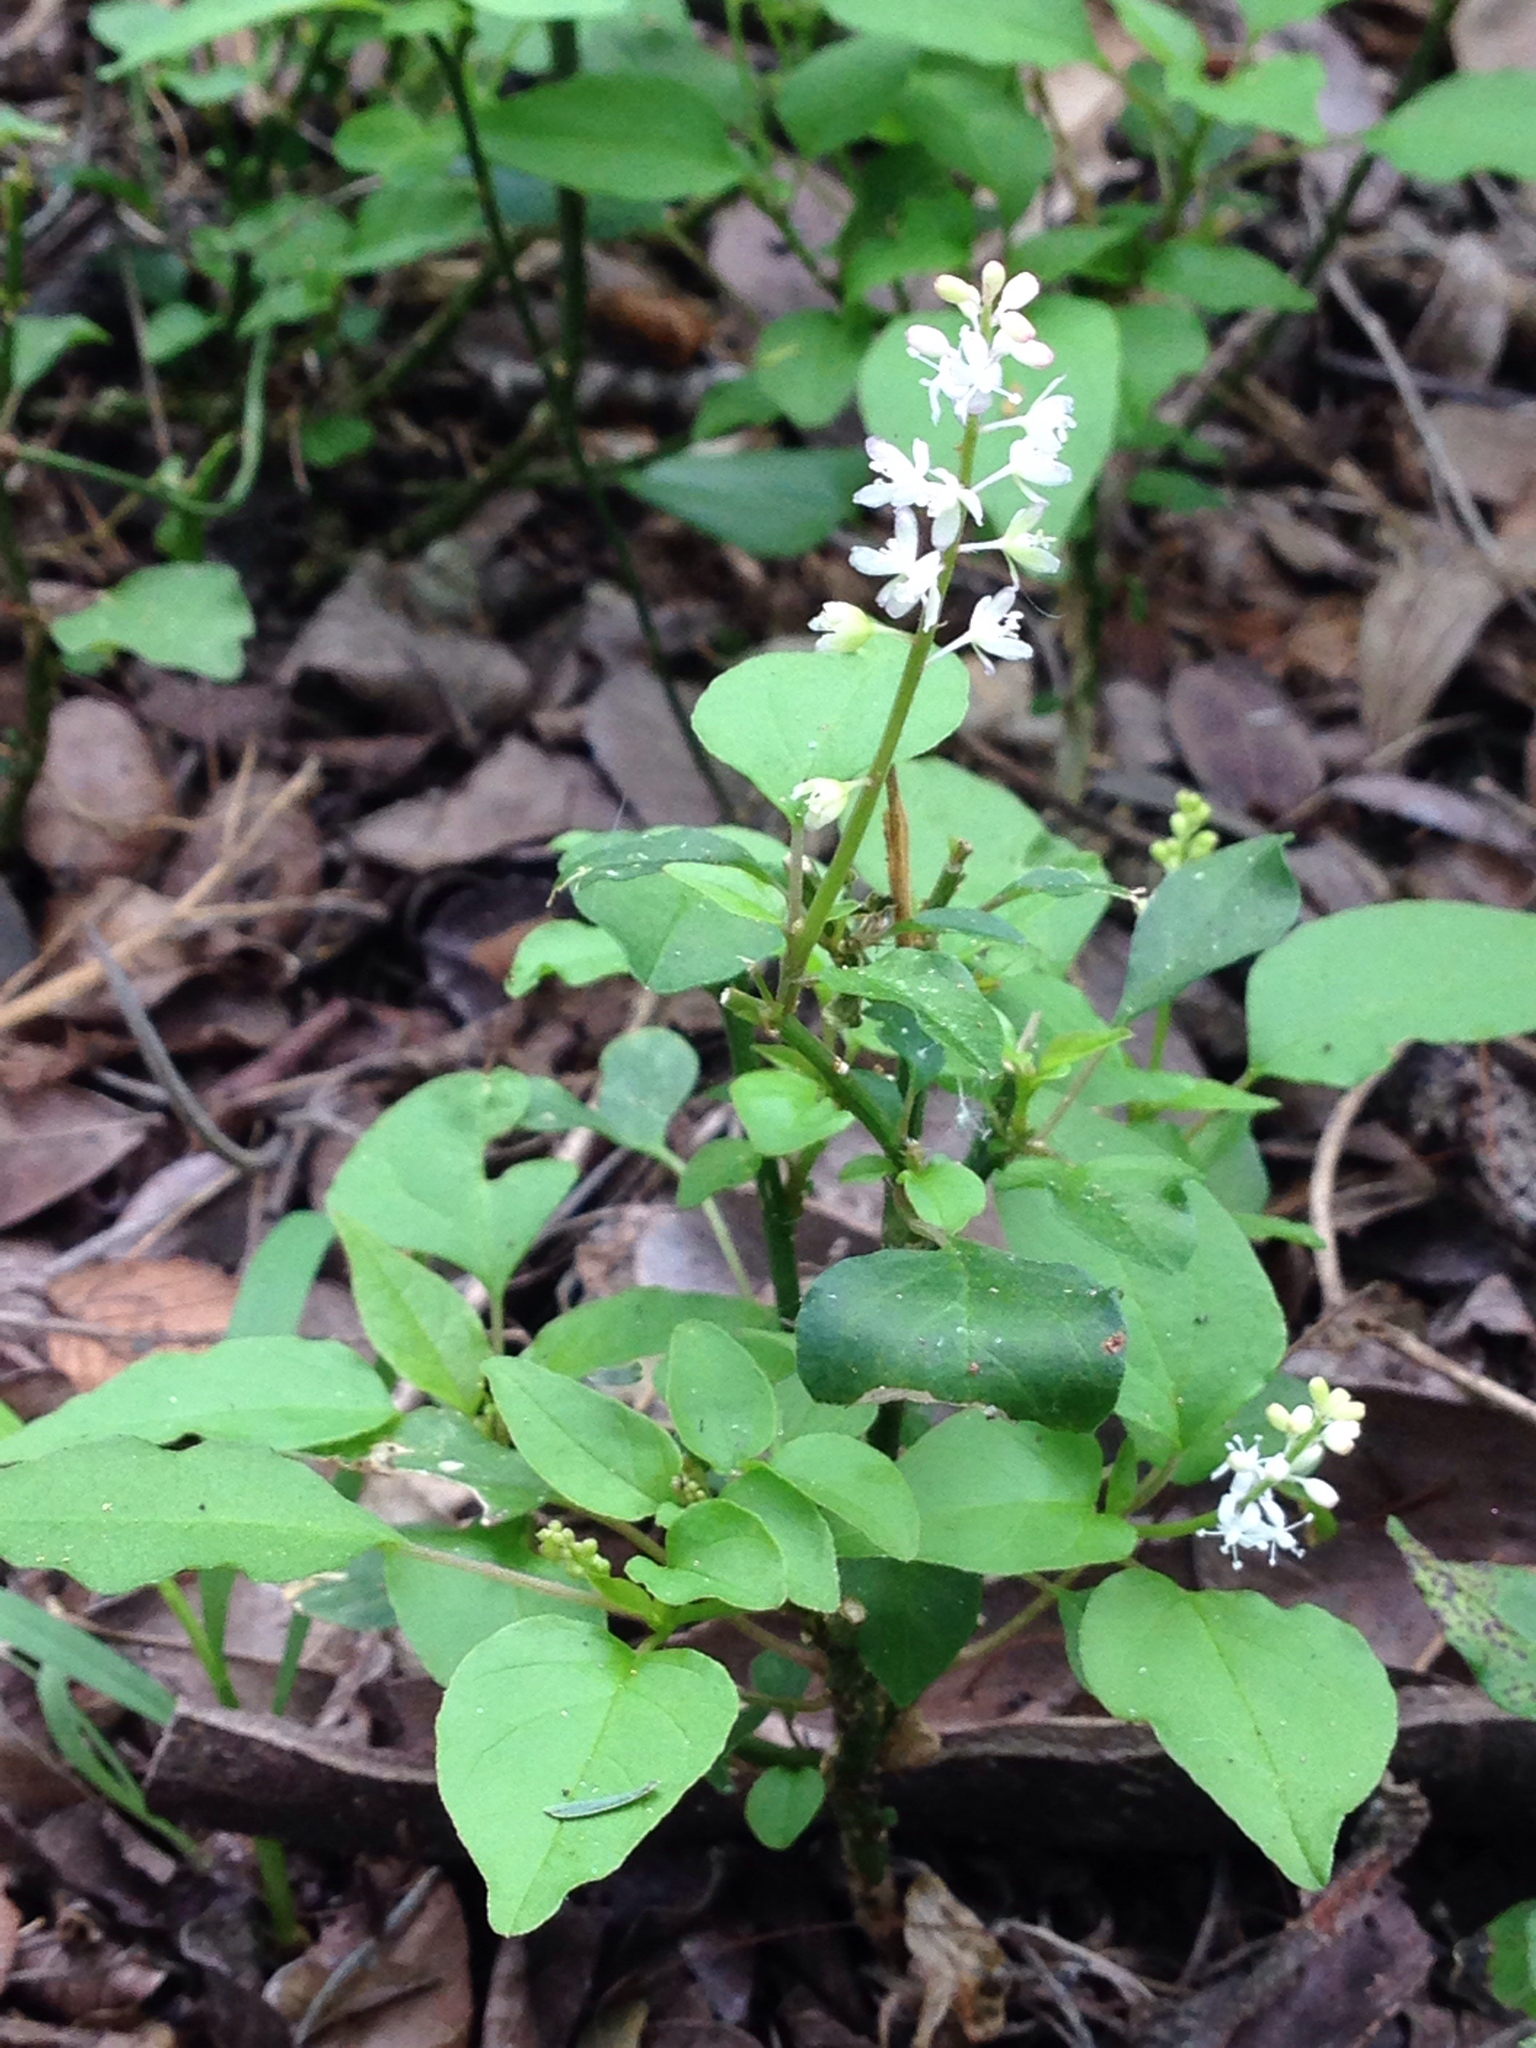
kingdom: Plantae
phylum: Tracheophyta
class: Magnoliopsida
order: Caryophyllales
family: Phytolaccaceae
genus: Rivina
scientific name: Rivina humilis
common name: Rougeplant
